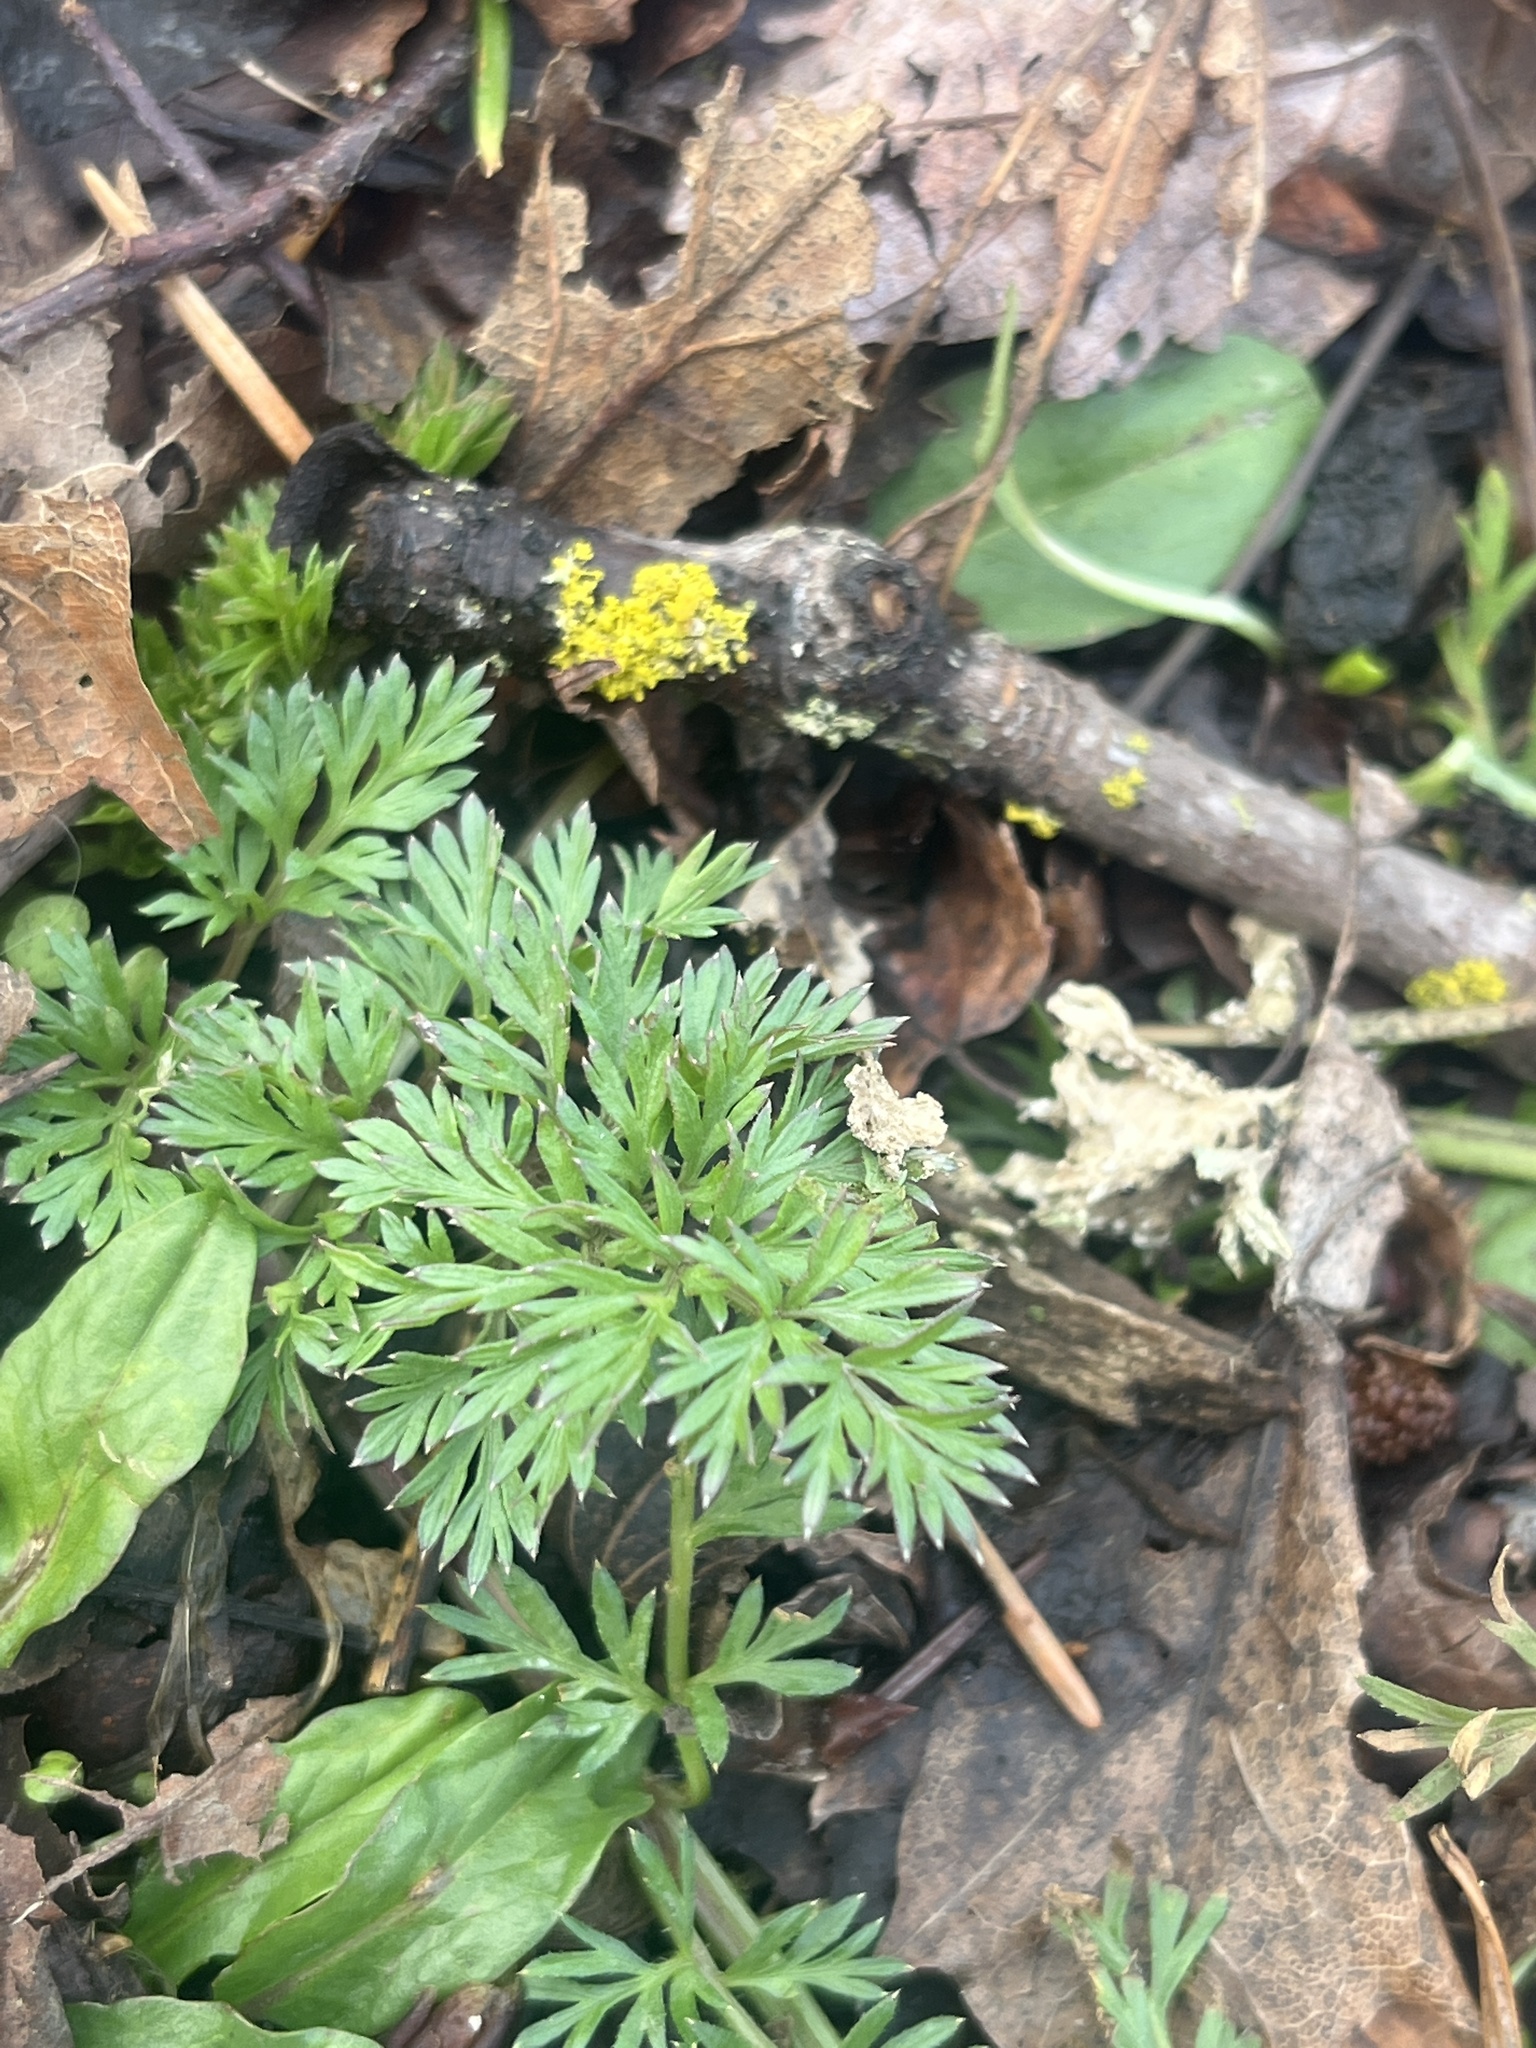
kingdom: Plantae
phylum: Tracheophyta
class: Magnoliopsida
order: Apiales
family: Apiaceae
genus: Daucus
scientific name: Daucus carota
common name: Wild carrot
